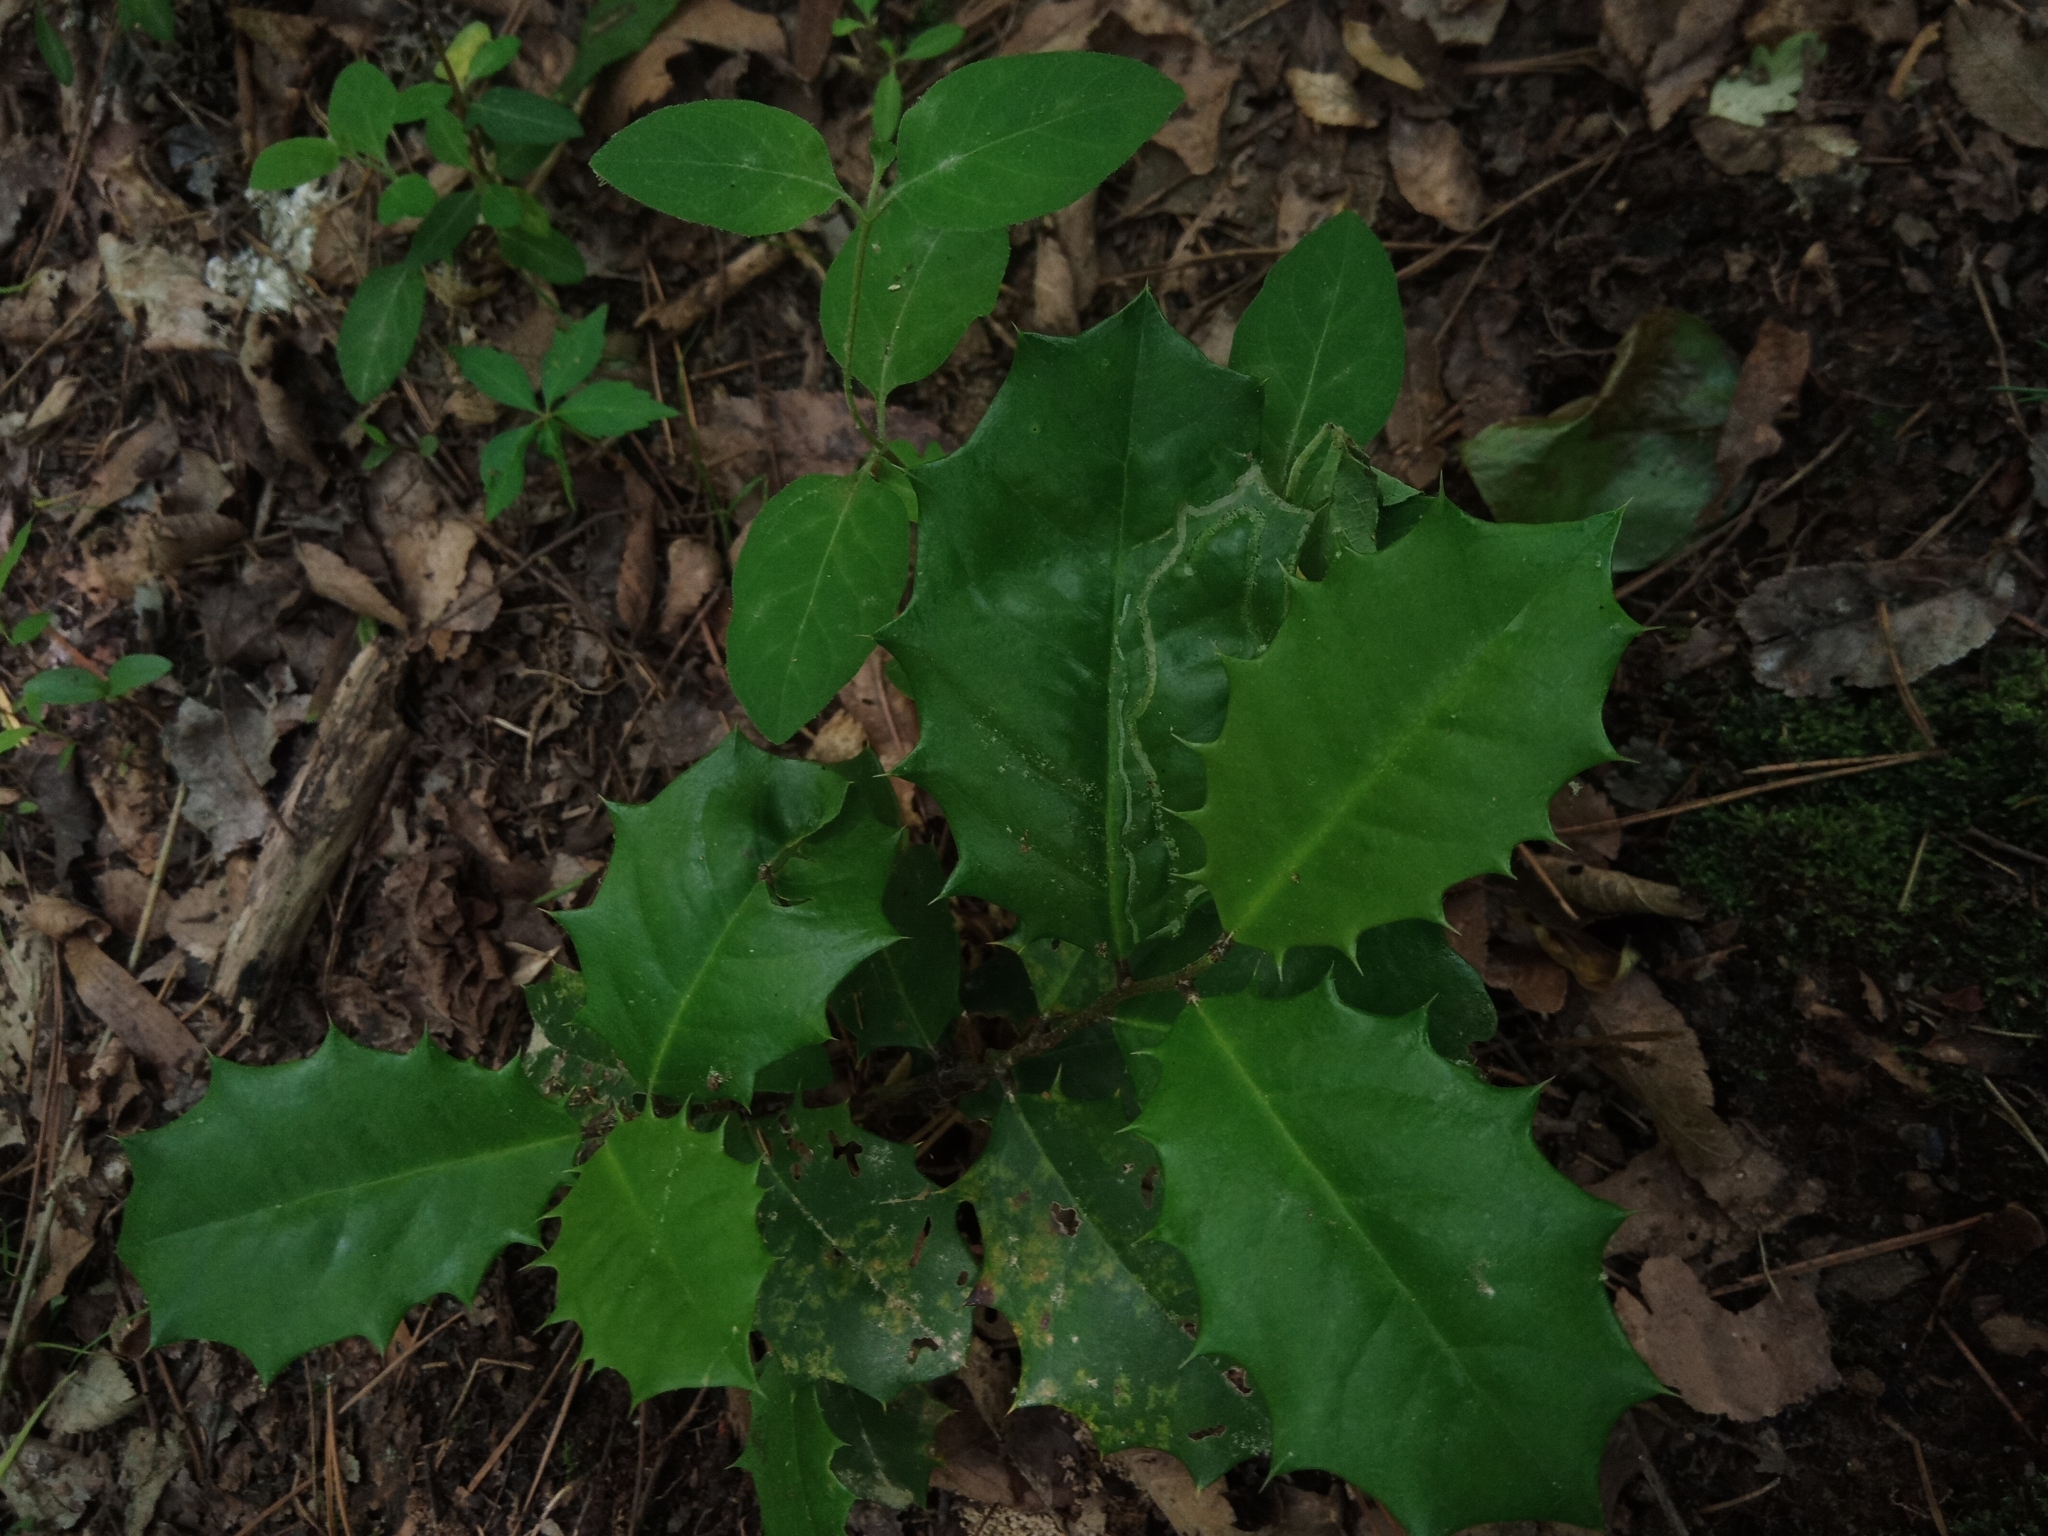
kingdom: Plantae
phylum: Tracheophyta
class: Magnoliopsida
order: Aquifoliales
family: Aquifoliaceae
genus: Ilex
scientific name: Ilex opaca
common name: American holly
